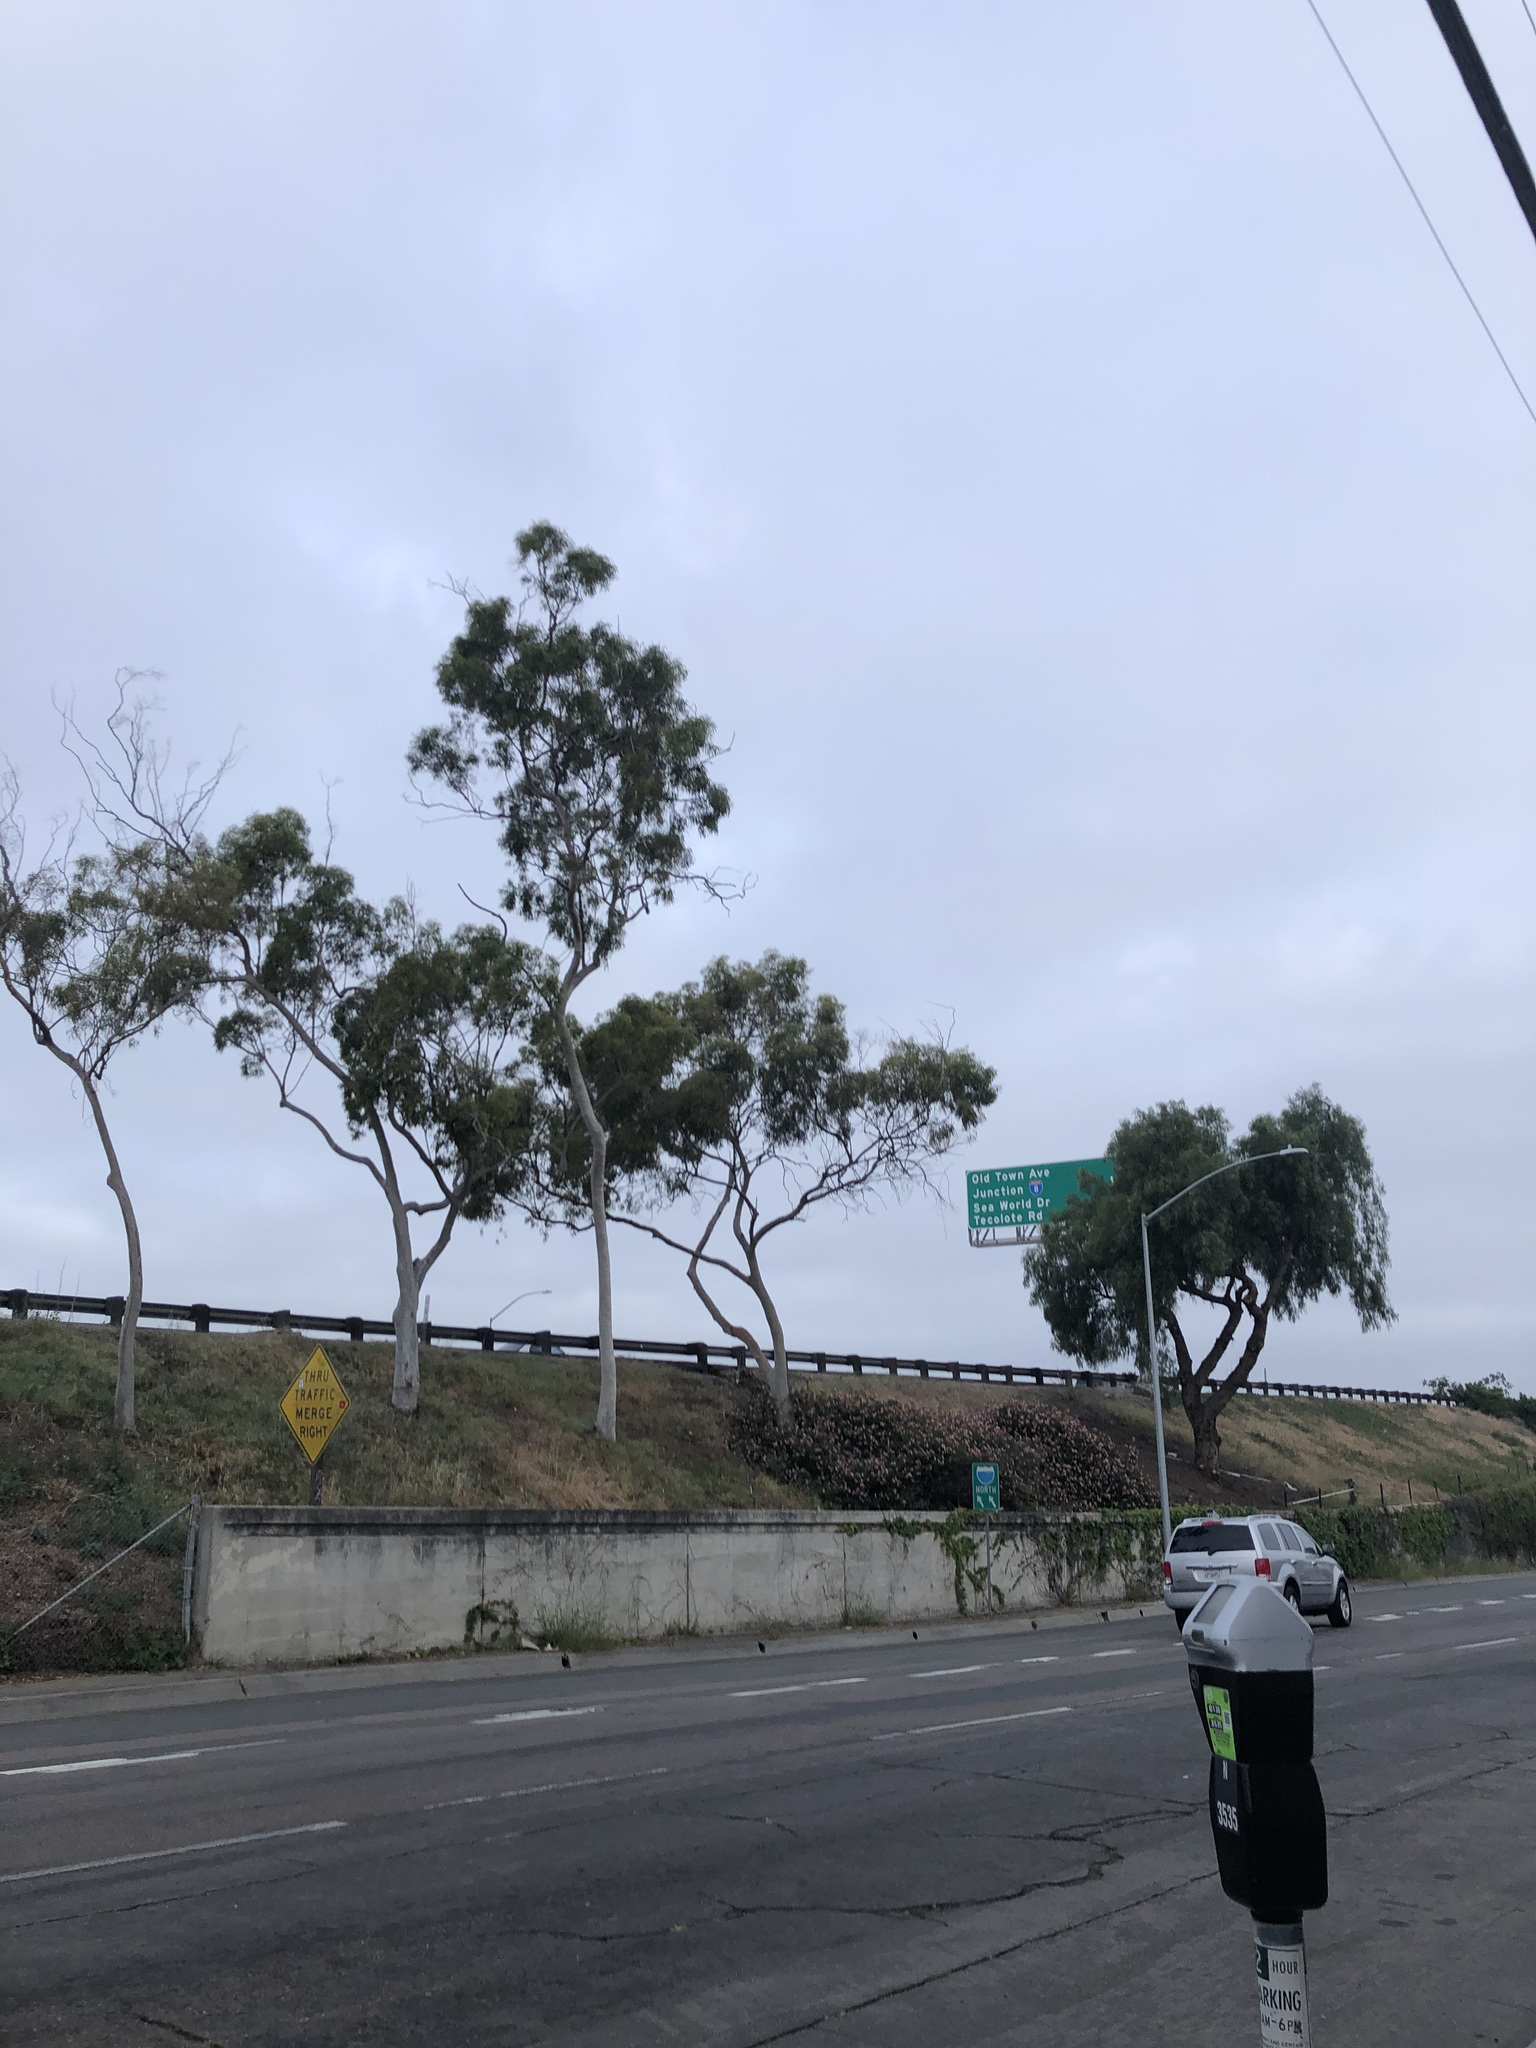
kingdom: Plantae
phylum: Tracheophyta
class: Magnoliopsida
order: Myrtales
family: Myrtaceae
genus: Eucalyptus
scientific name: Eucalyptus cladocalyx
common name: Sugargum
